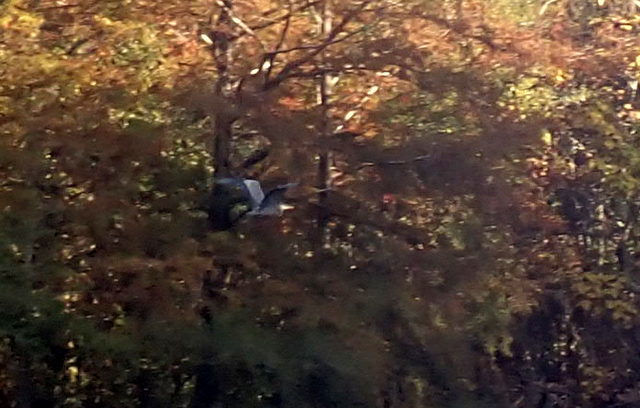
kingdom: Animalia
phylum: Chordata
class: Aves
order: Pelecaniformes
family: Ardeidae
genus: Ardea
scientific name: Ardea herodias
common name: Great blue heron
